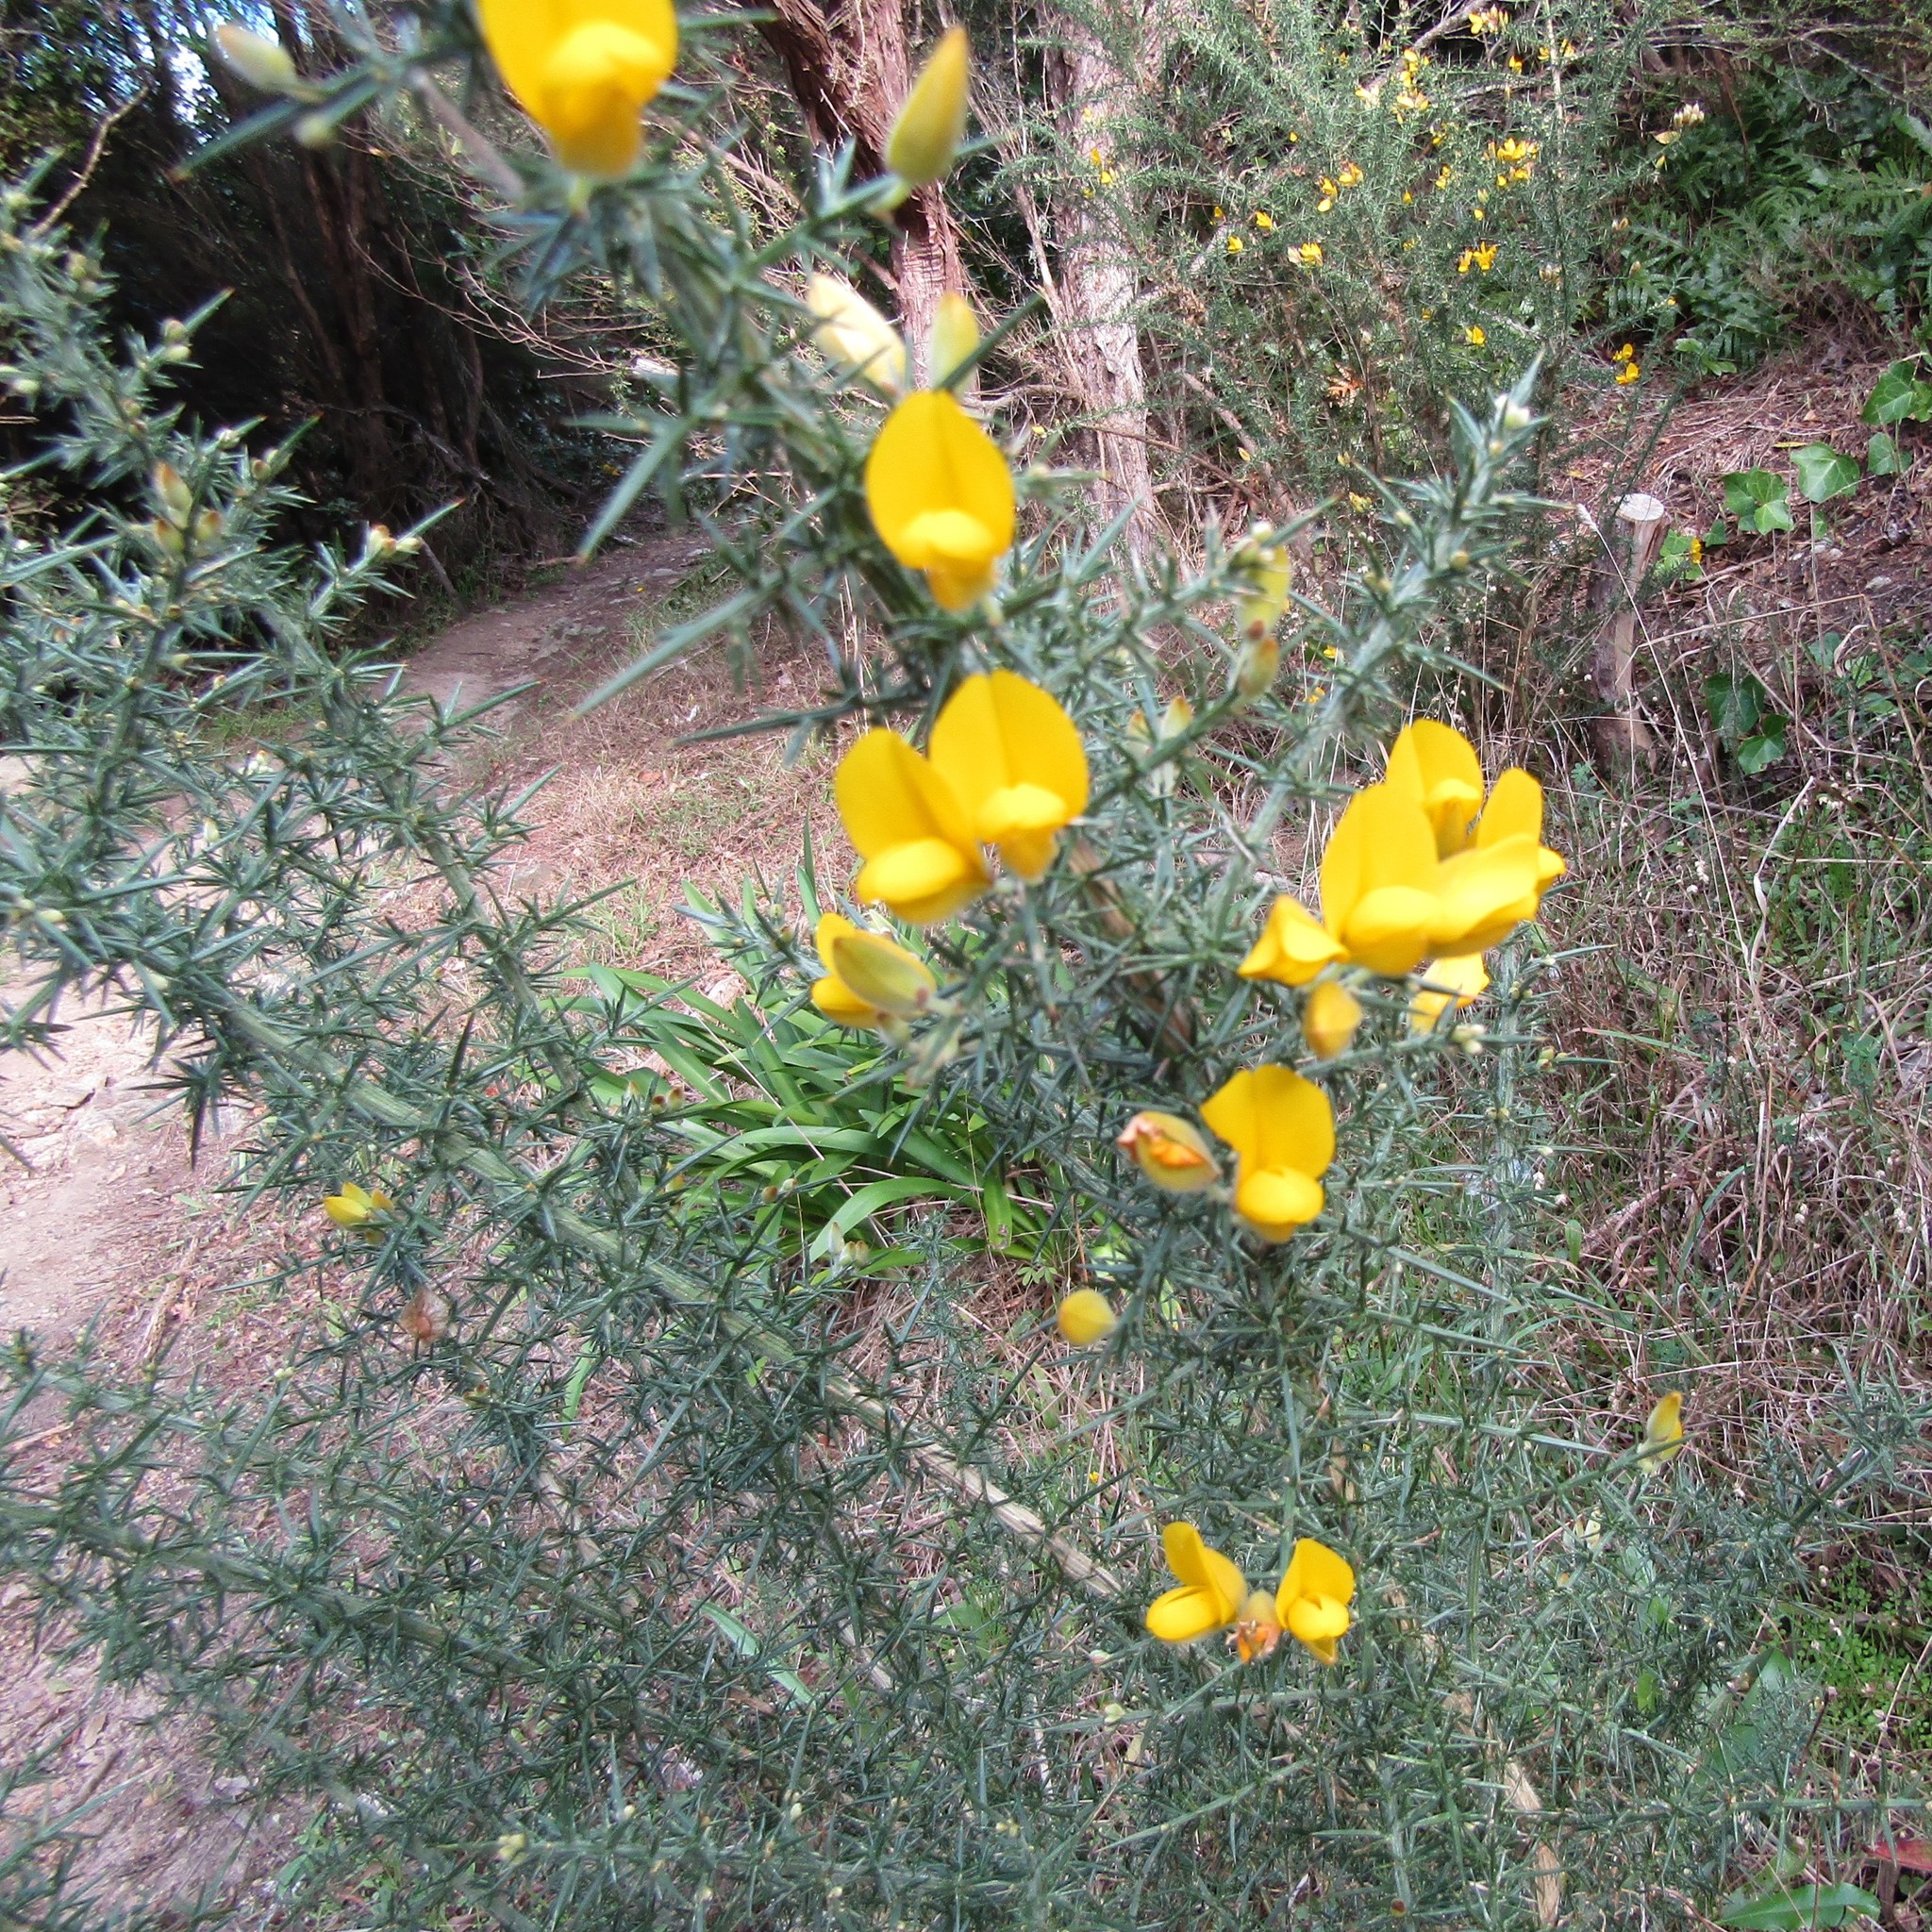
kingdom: Plantae
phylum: Tracheophyta
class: Magnoliopsida
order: Fabales
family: Fabaceae
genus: Ulex
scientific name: Ulex europaeus
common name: Common gorse
